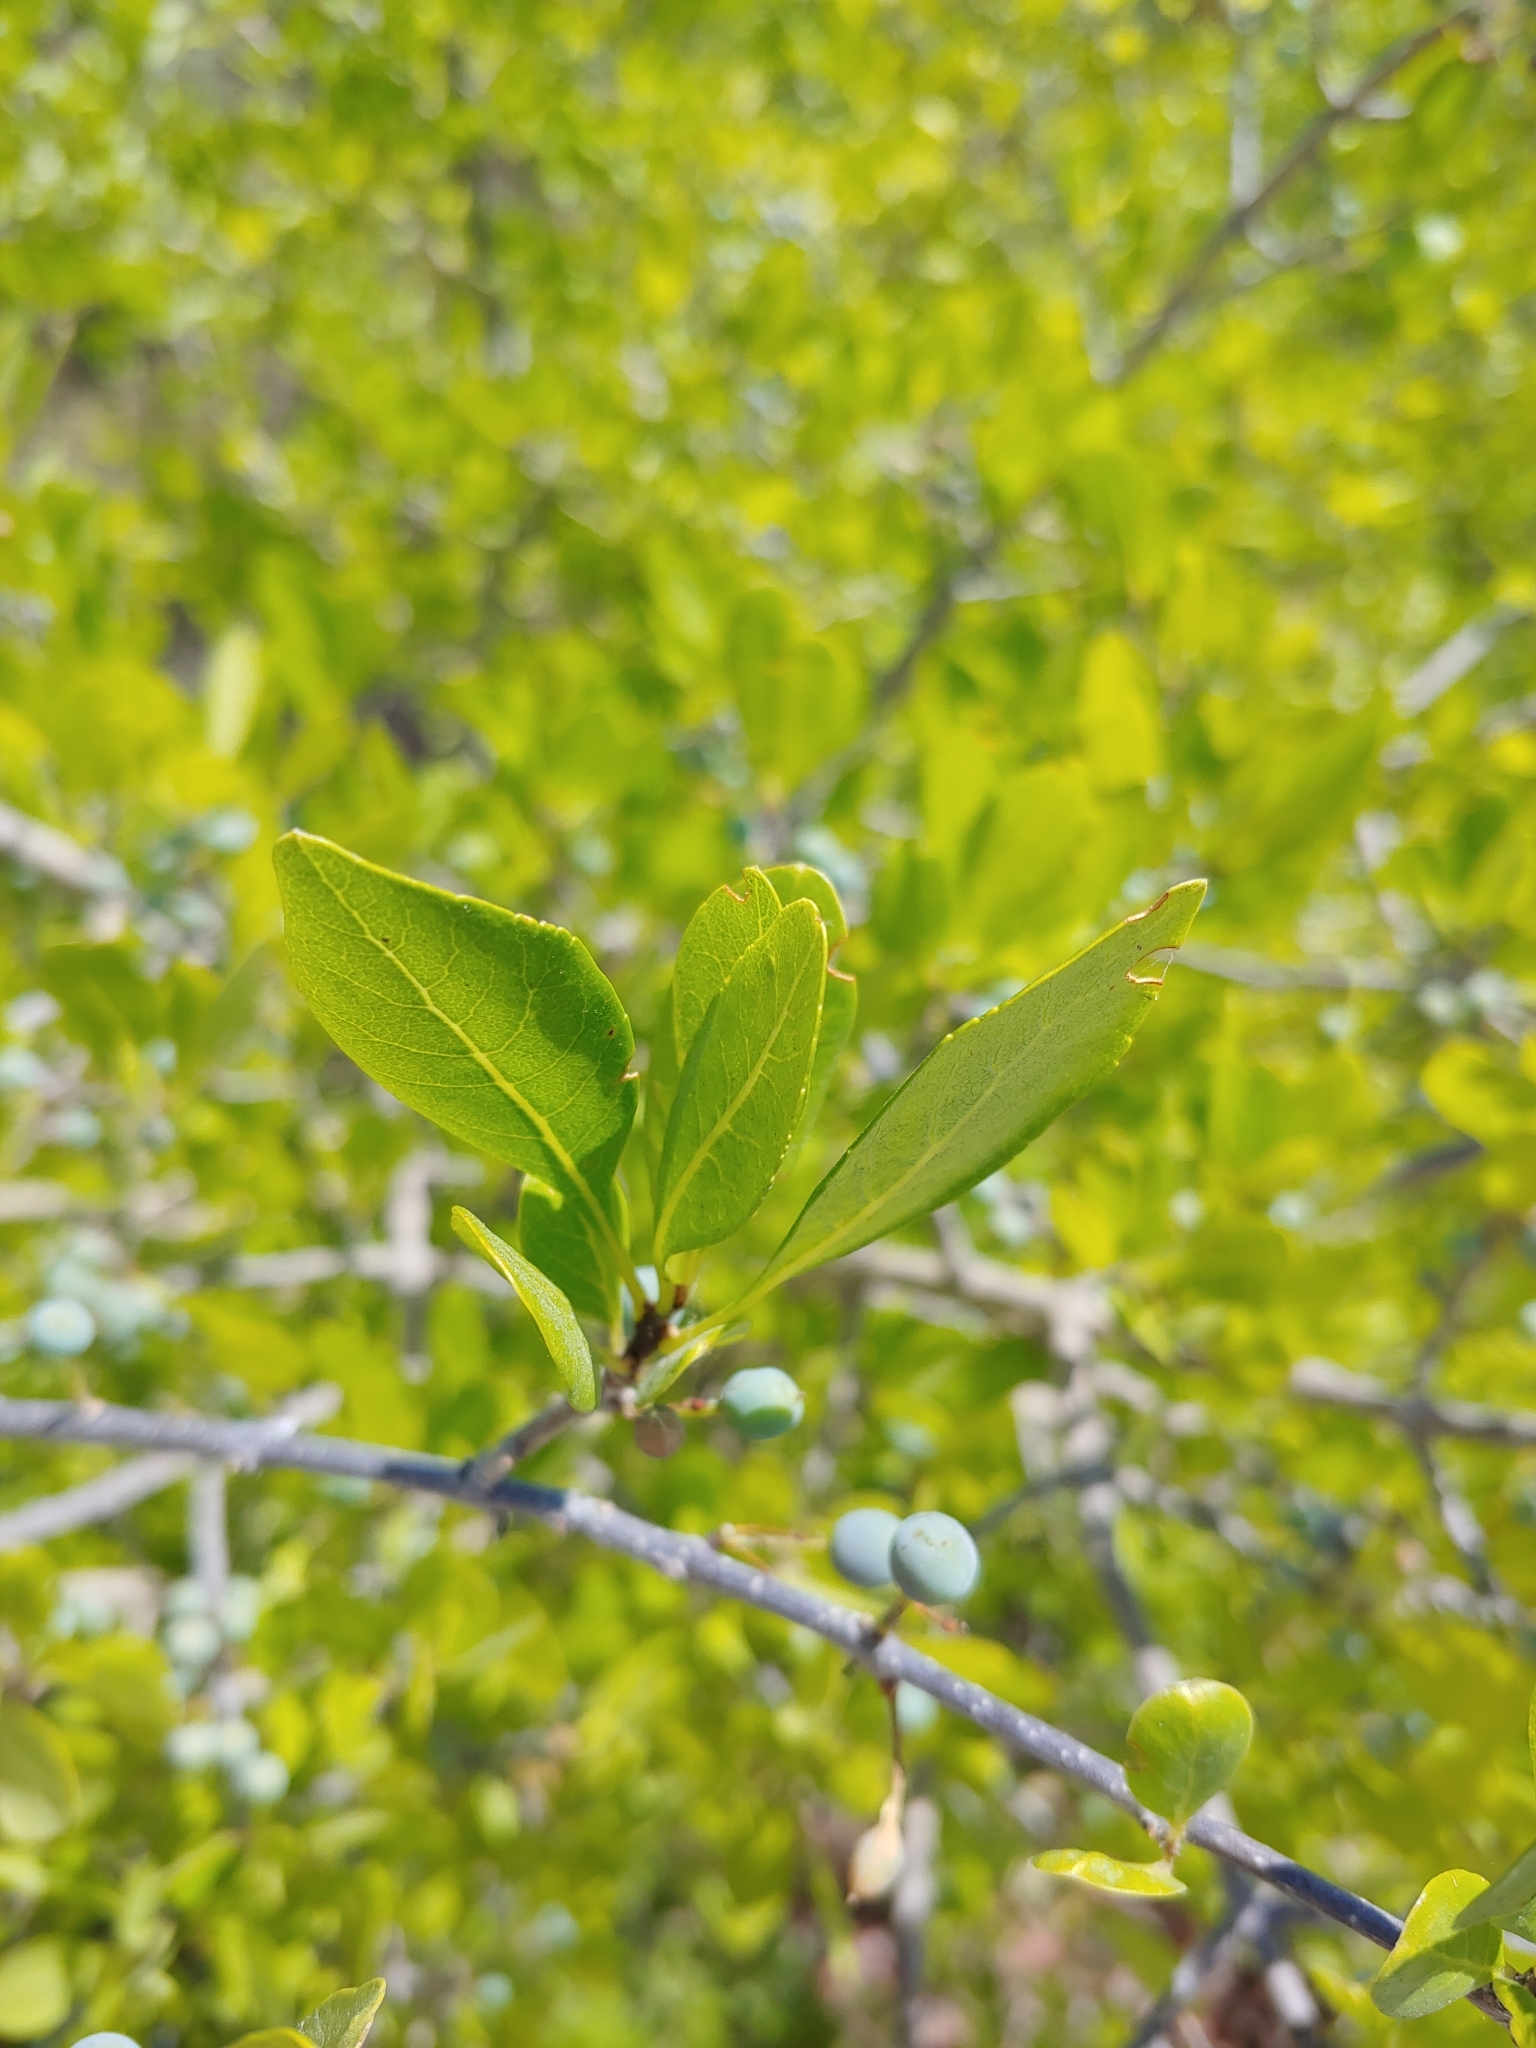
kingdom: Plantae
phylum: Tracheophyta
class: Magnoliopsida
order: Lamiales
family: Oleaceae
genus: Forestiera
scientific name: Forestiera pubescens
